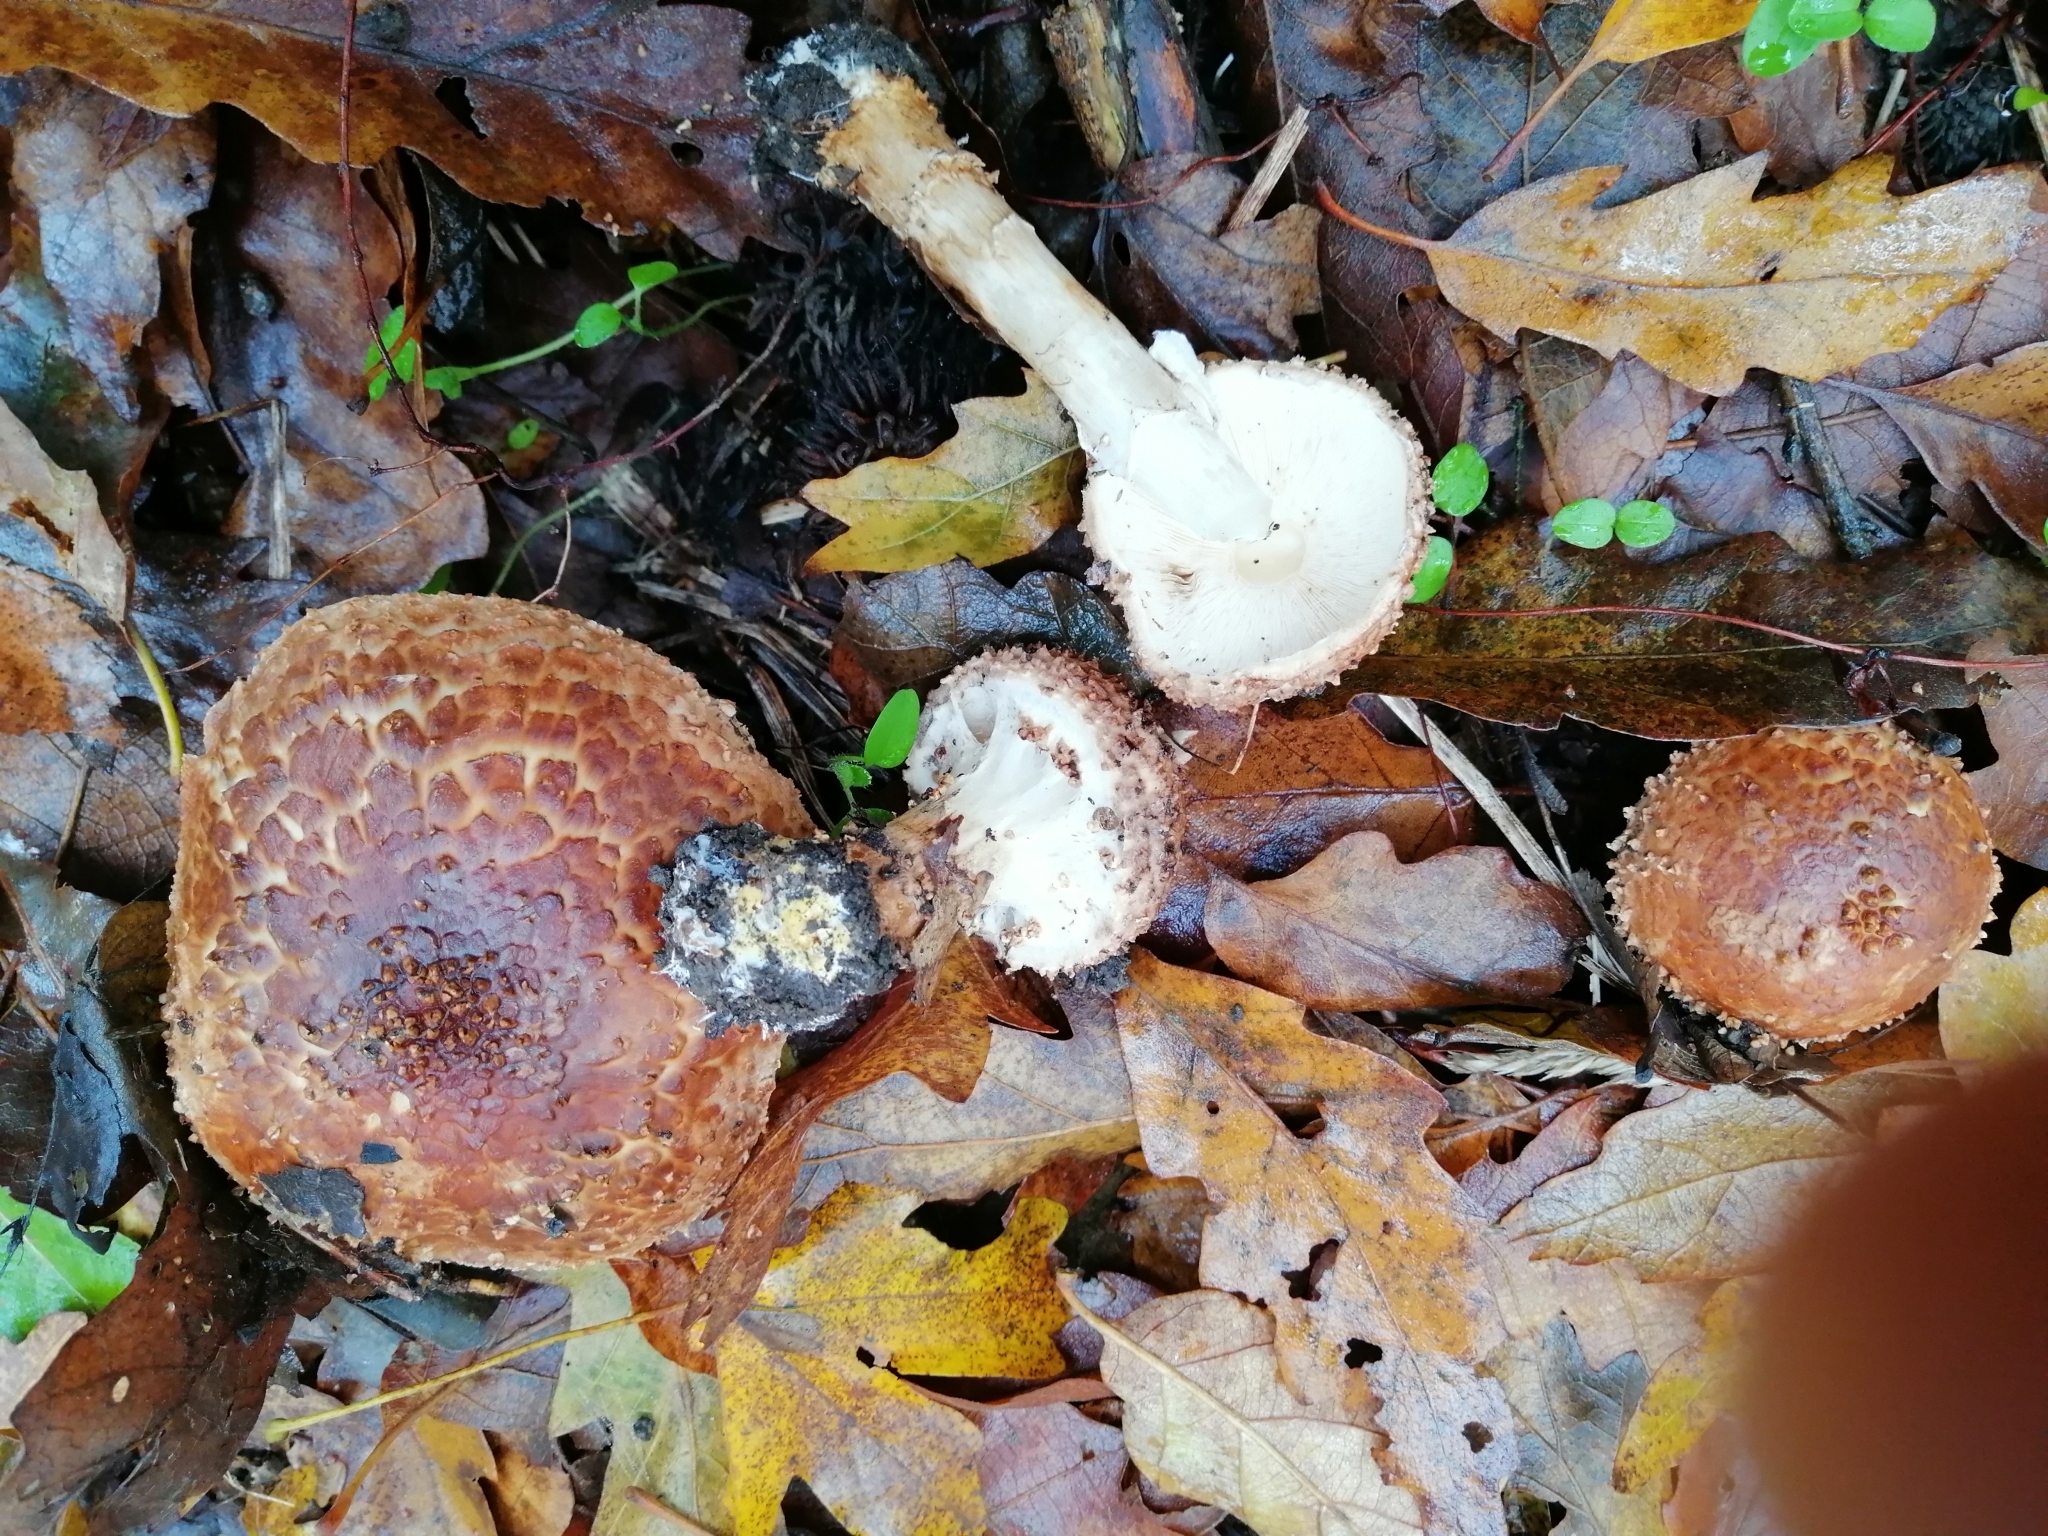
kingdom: Fungi
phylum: Basidiomycota
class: Agaricomycetes
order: Agaricales
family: Agaricaceae
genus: Echinoderma
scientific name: Echinoderma asperum
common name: Freckled dapperling
